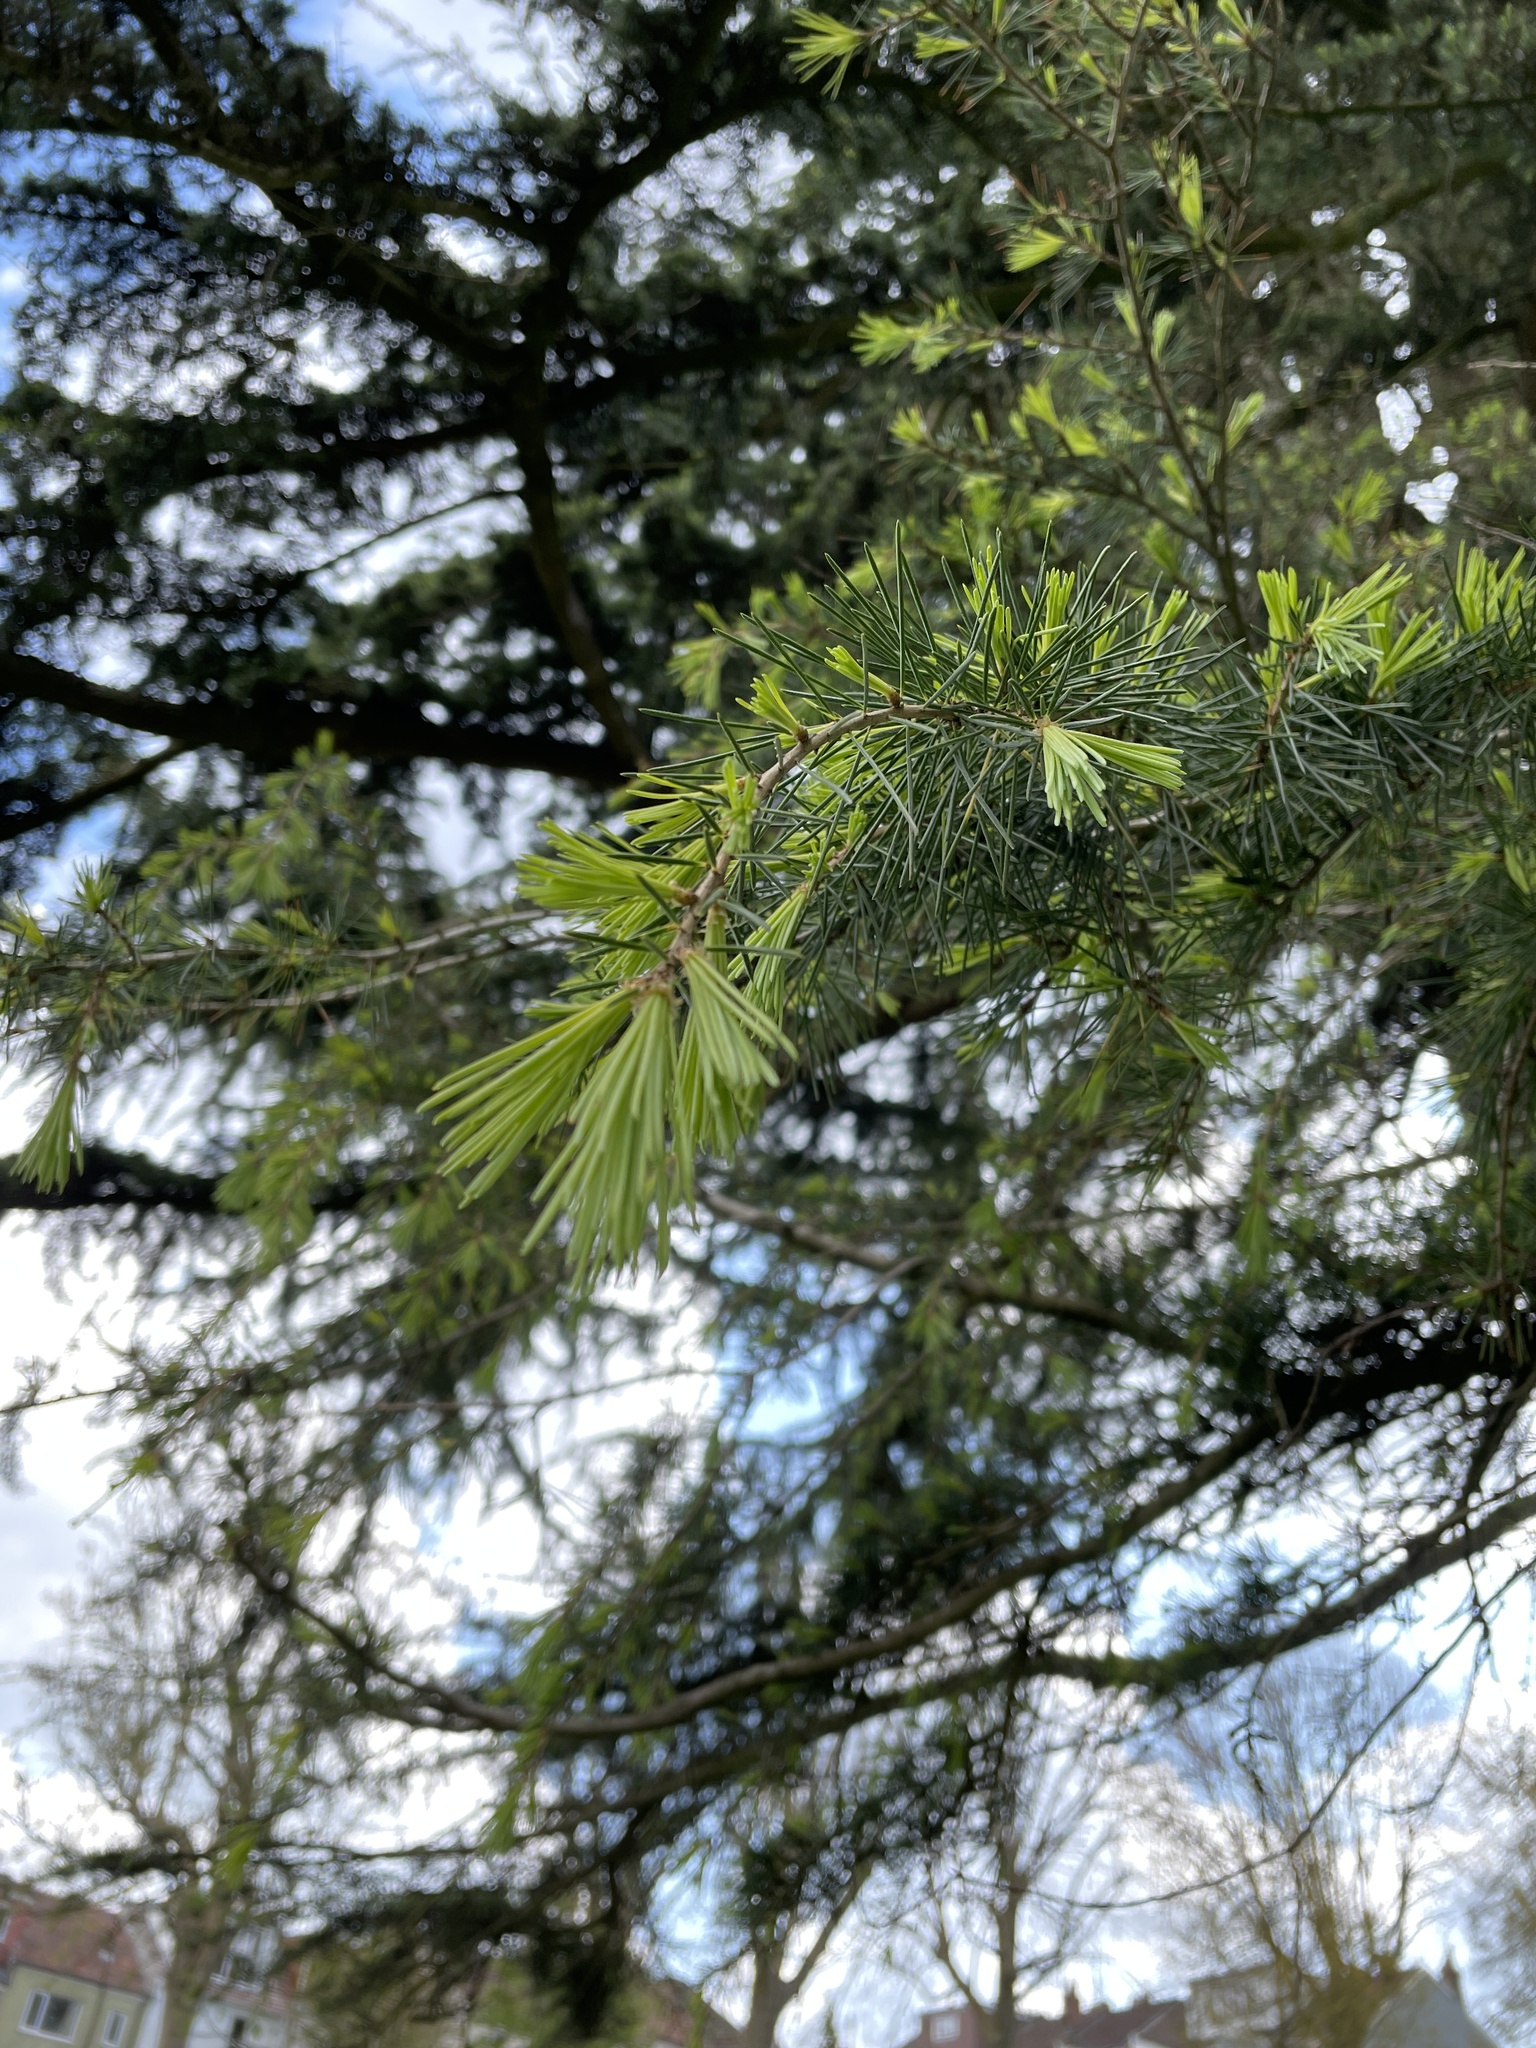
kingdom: Plantae
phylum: Tracheophyta
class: Pinopsida
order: Pinales
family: Pinaceae
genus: Cedrus
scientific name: Cedrus deodara
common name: Deodar
